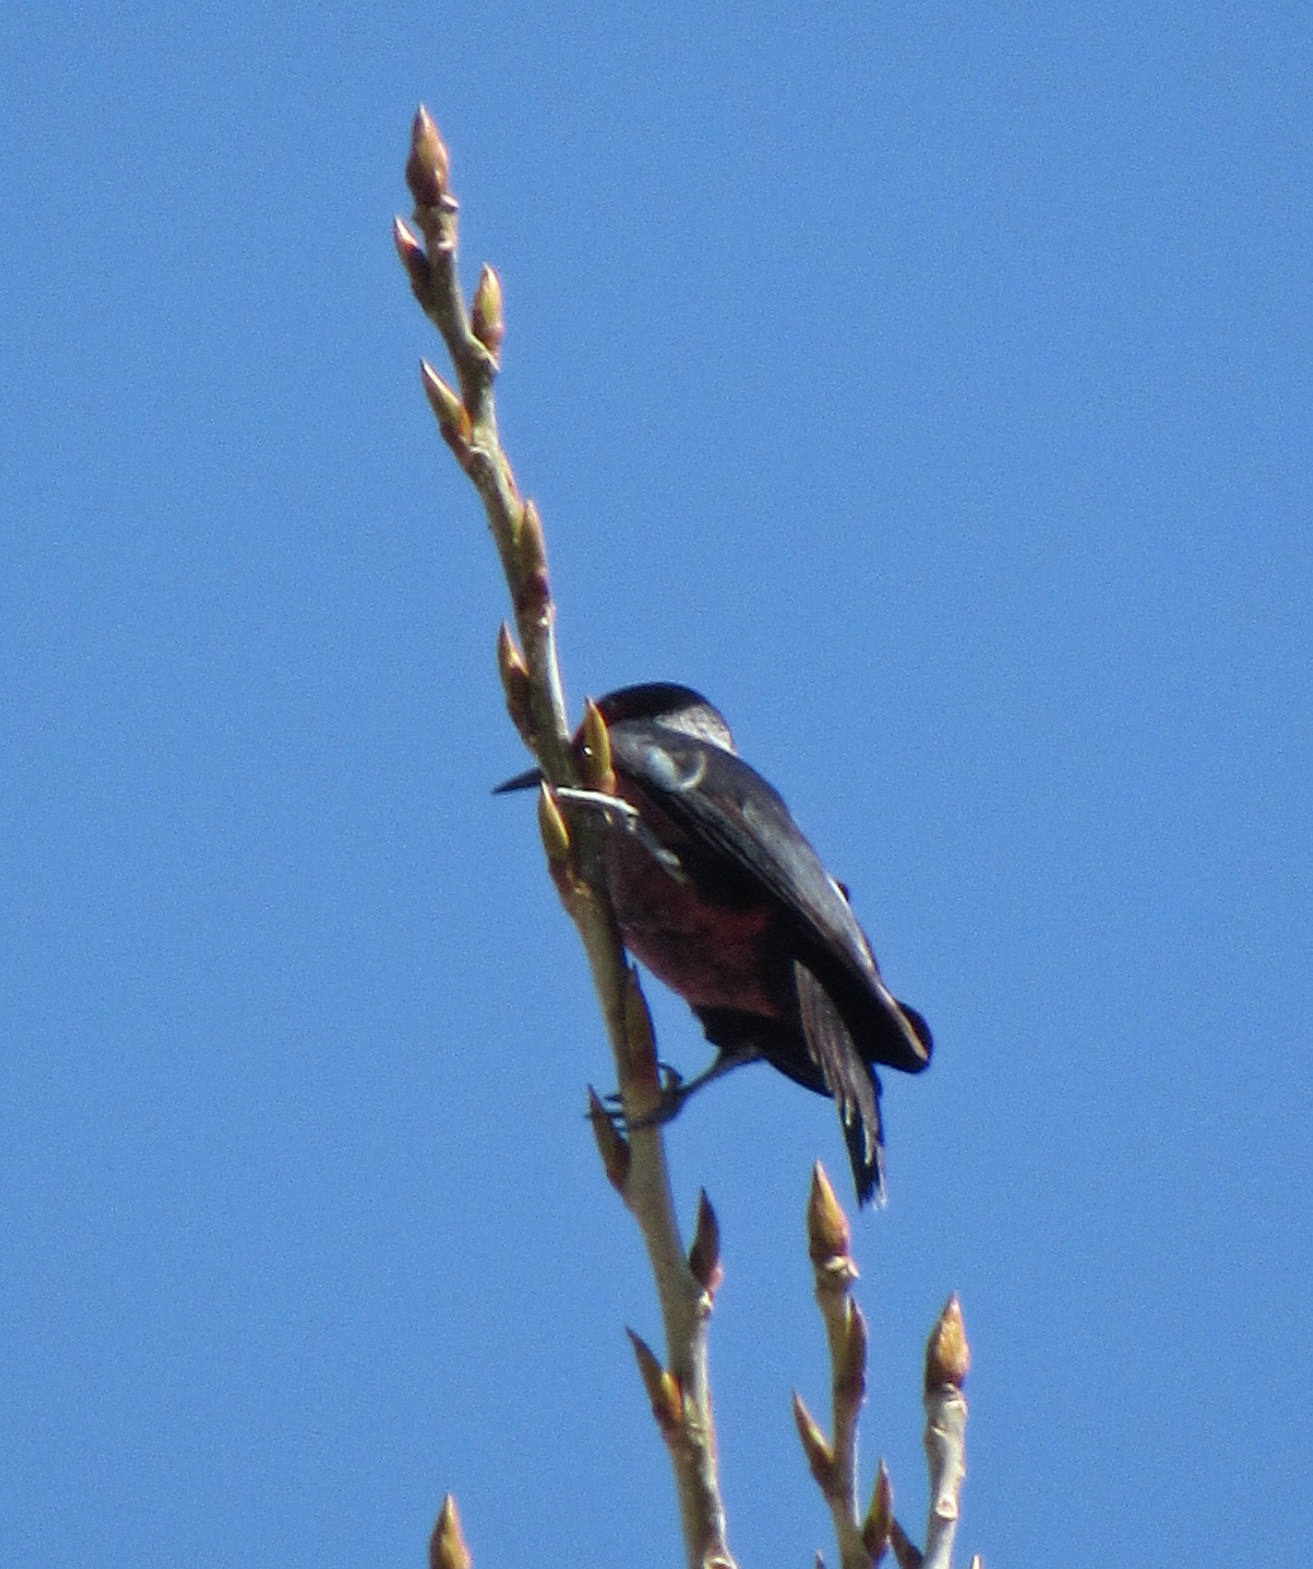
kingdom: Animalia
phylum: Chordata
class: Aves
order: Piciformes
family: Picidae
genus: Melanerpes
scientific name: Melanerpes lewis
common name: Lewis's woodpecker
